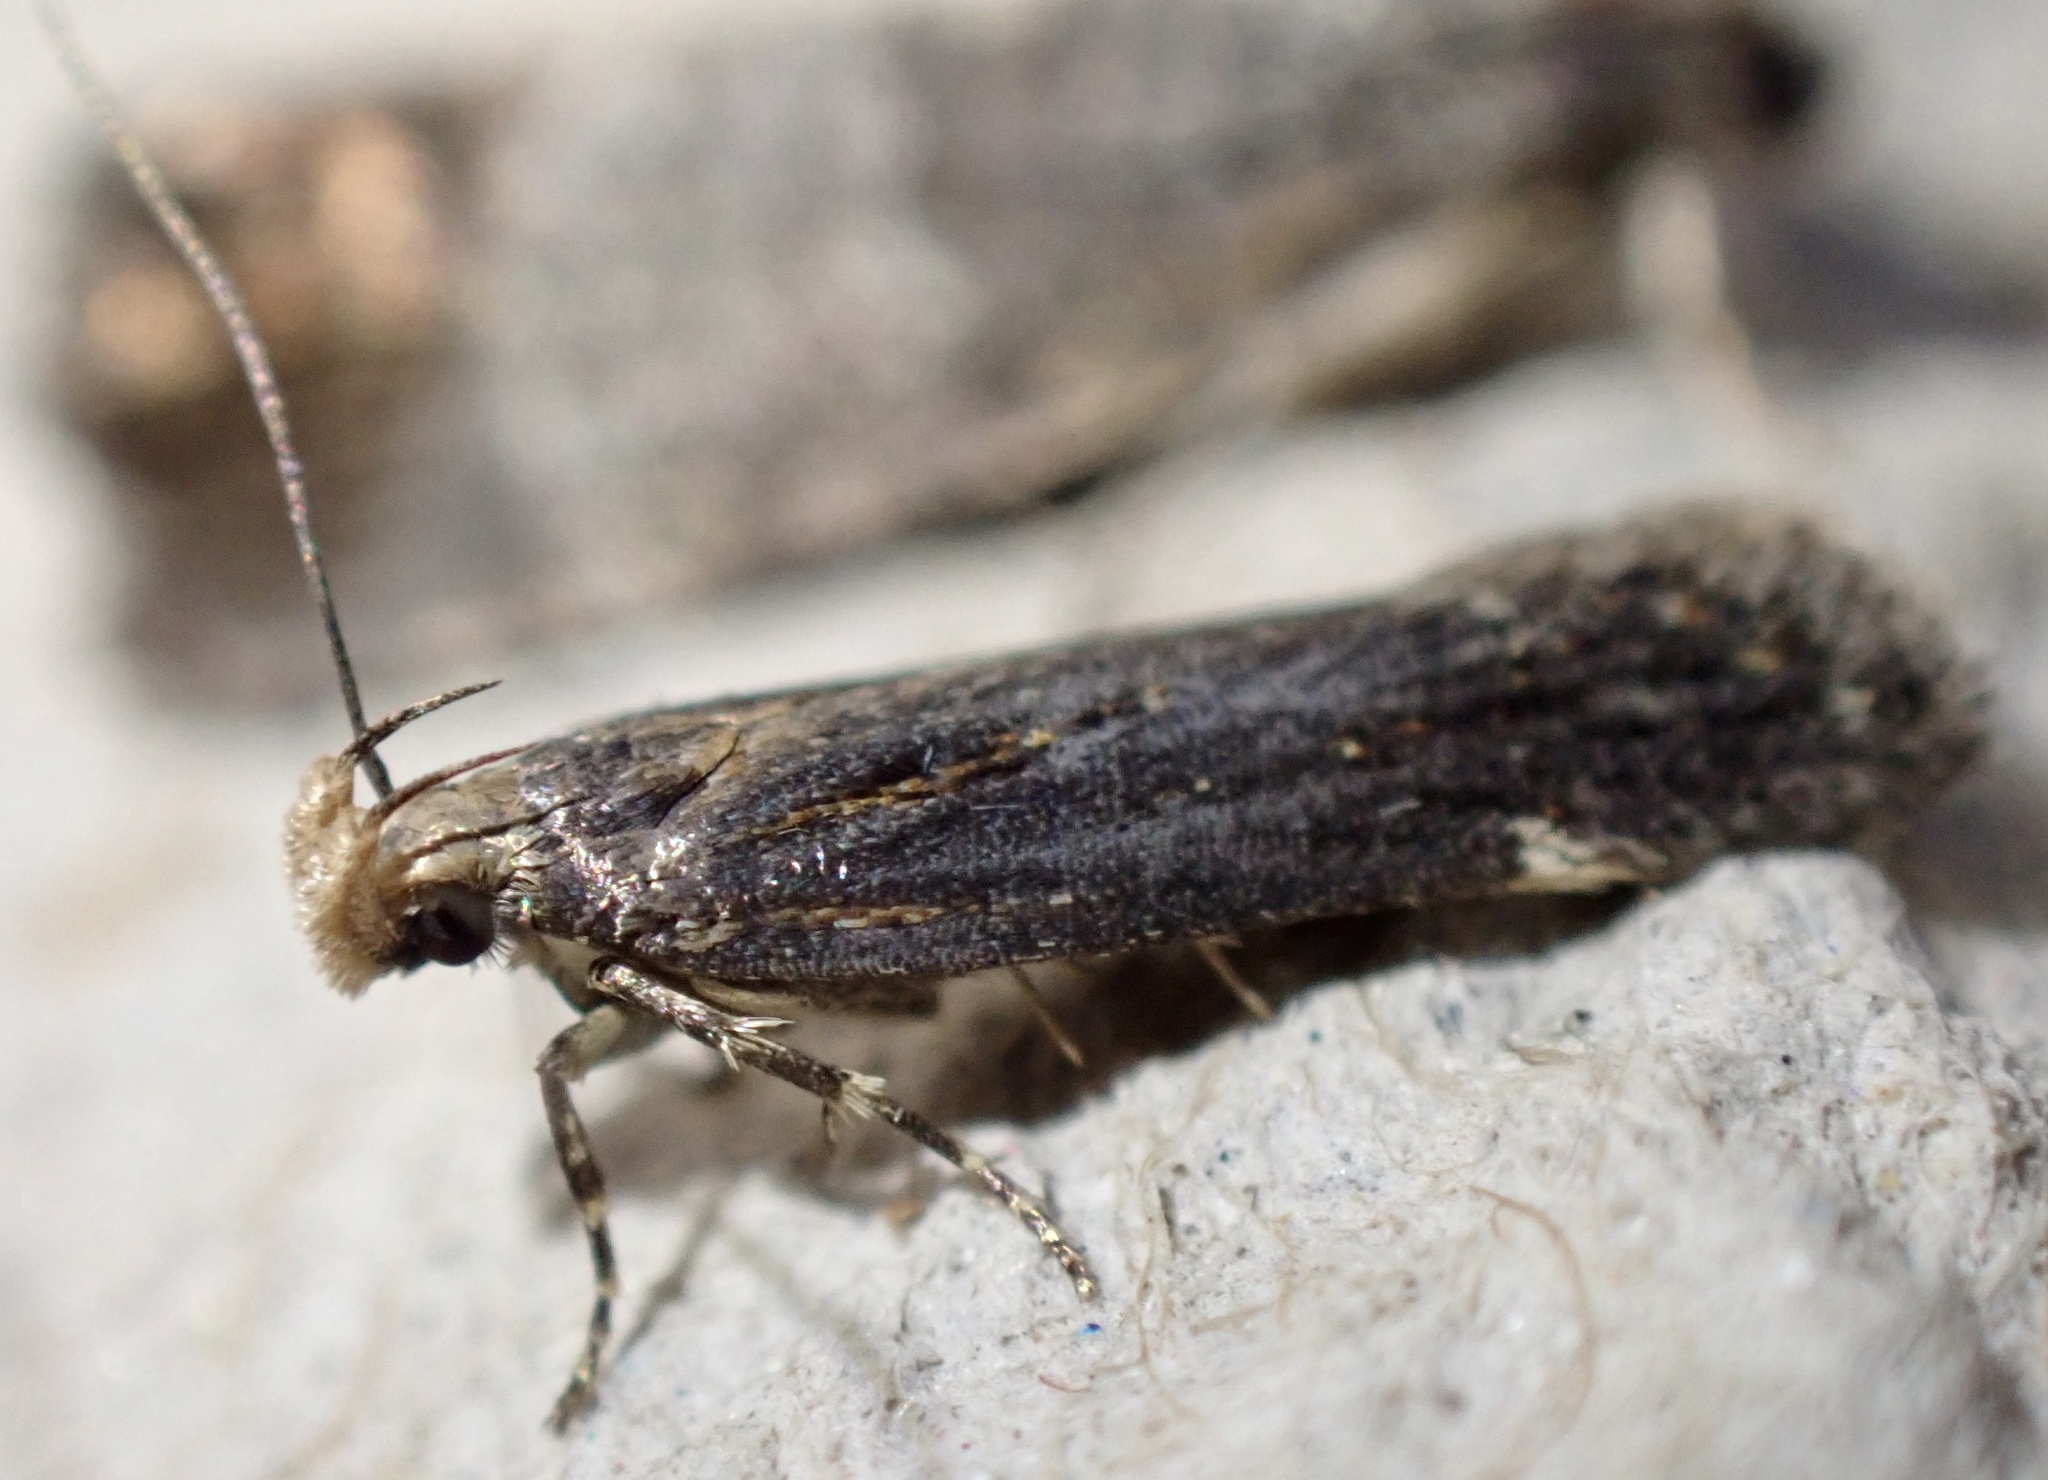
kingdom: Animalia
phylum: Arthropoda
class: Insecta
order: Lepidoptera
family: Gelechiidae
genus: Aroga
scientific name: Aroga velocella
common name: Dusky groundling
